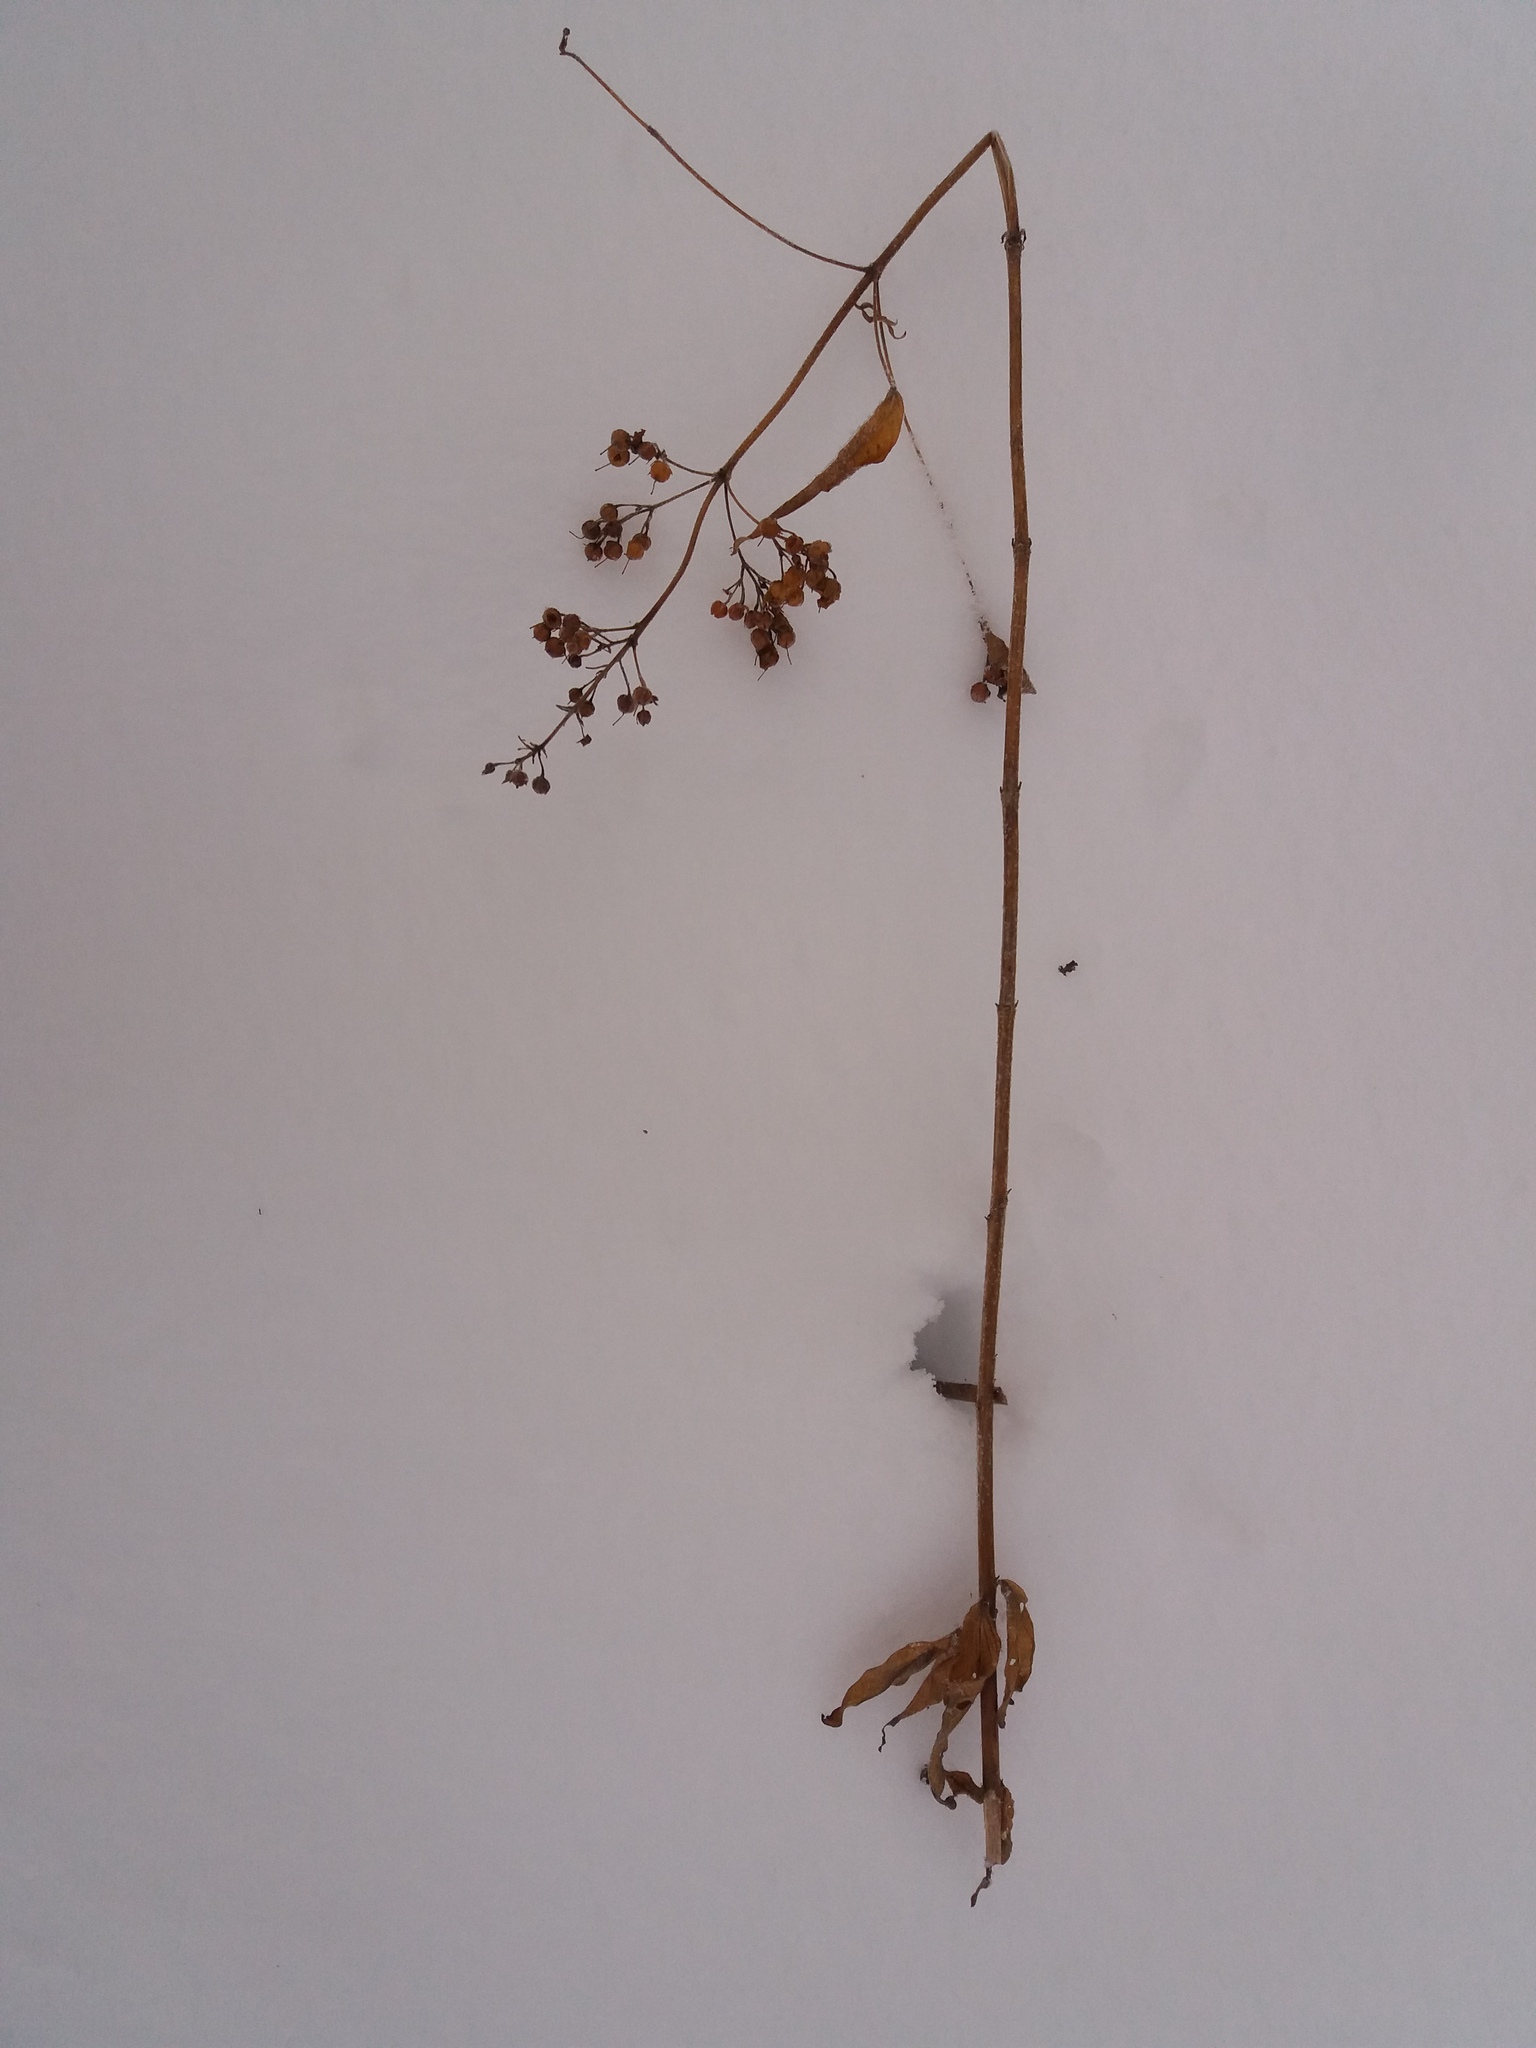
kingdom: Plantae
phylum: Tracheophyta
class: Magnoliopsida
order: Ericales
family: Primulaceae
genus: Lysimachia
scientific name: Lysimachia vulgaris
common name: Yellow loosestrife
